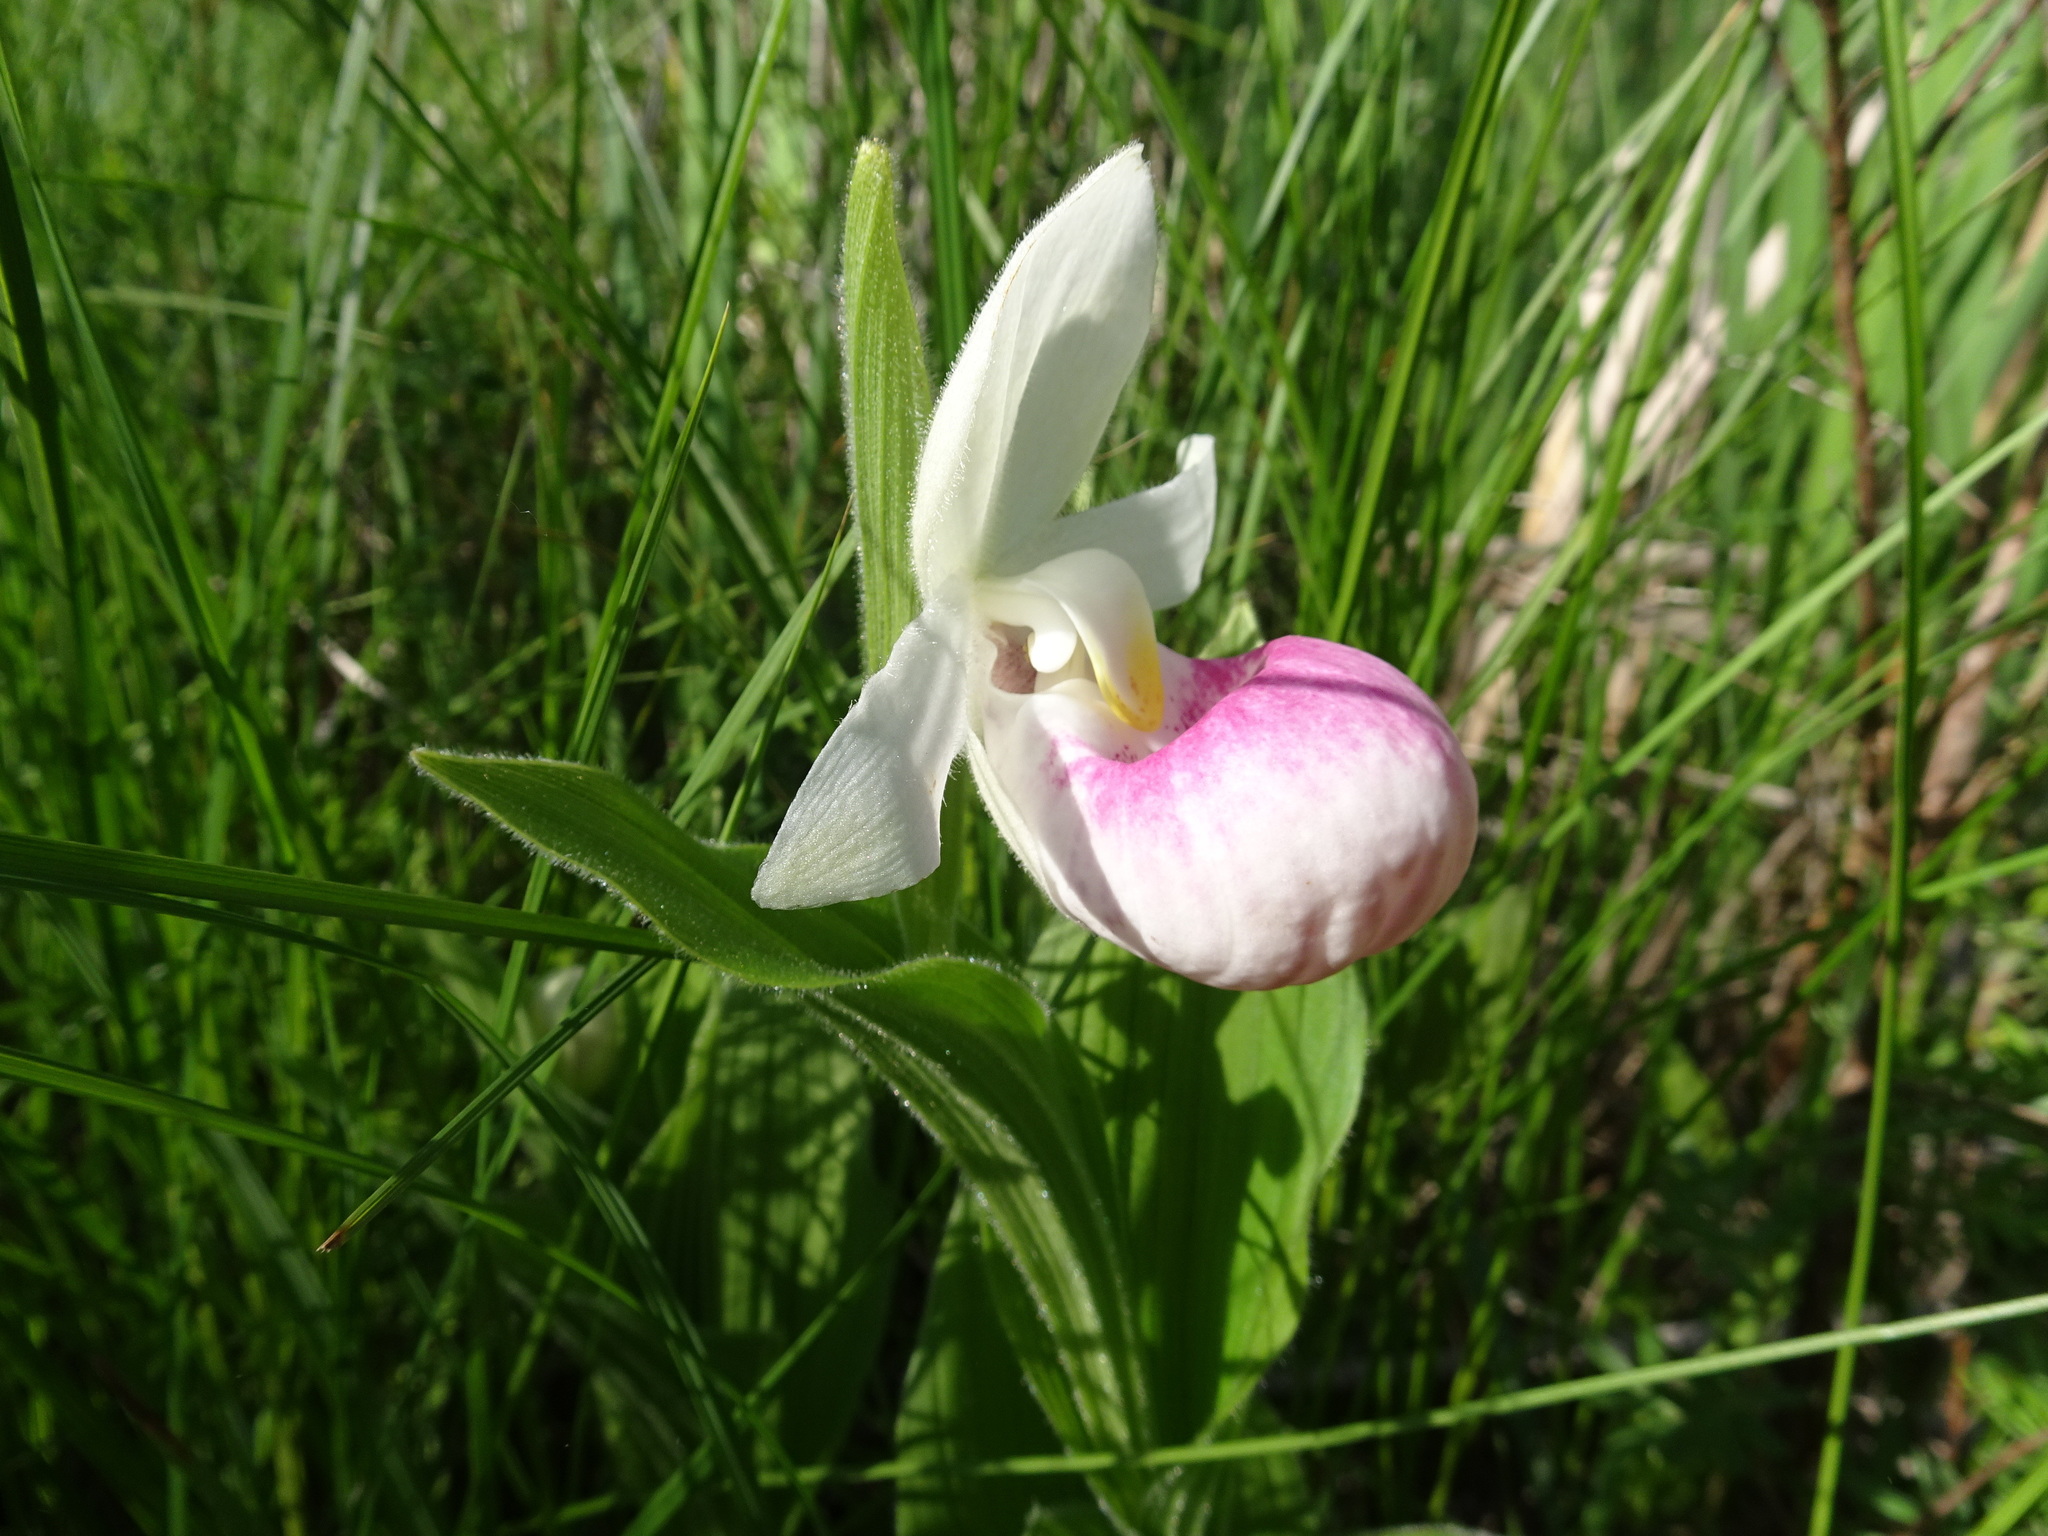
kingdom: Plantae
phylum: Tracheophyta
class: Liliopsida
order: Asparagales
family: Orchidaceae
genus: Cypripedium
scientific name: Cypripedium reginae
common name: Queen lady's-slipper
